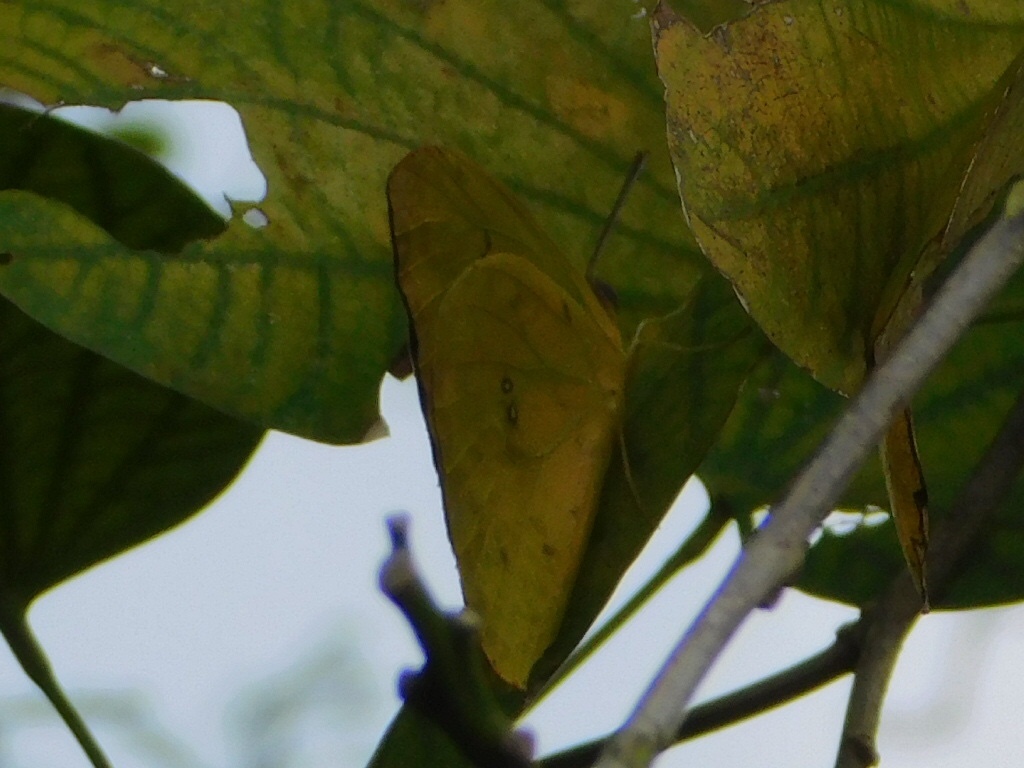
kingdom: Animalia
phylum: Arthropoda
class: Insecta
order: Lepidoptera
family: Pieridae
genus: Phoebis
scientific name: Phoebis philea
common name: Orange-barred giant sulphur
